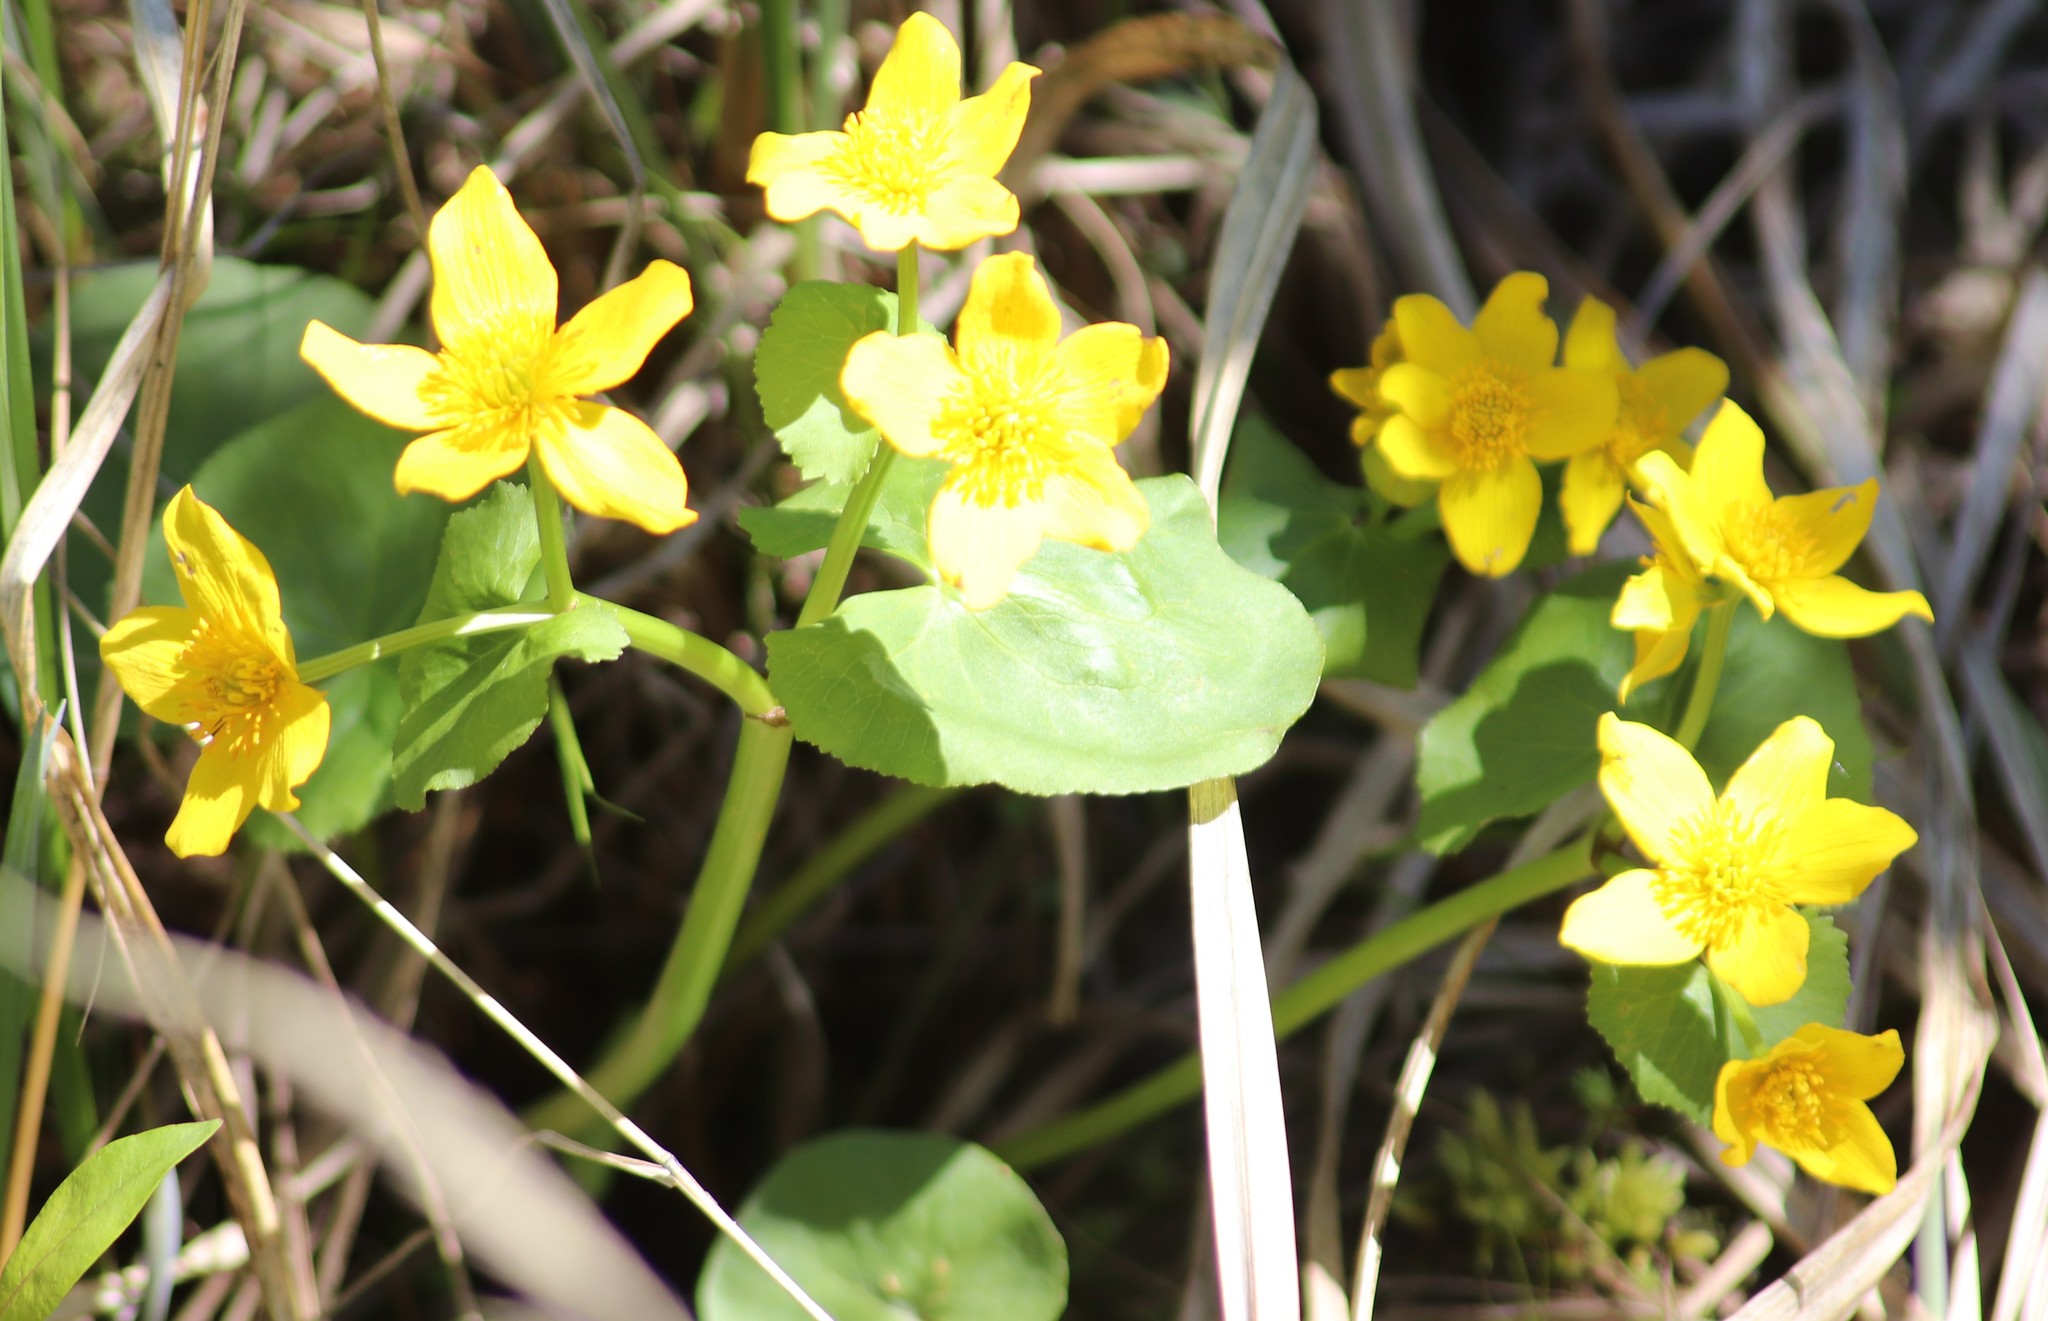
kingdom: Plantae
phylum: Tracheophyta
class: Magnoliopsida
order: Ranunculales
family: Ranunculaceae
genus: Caltha
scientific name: Caltha palustris
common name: Marsh marigold
